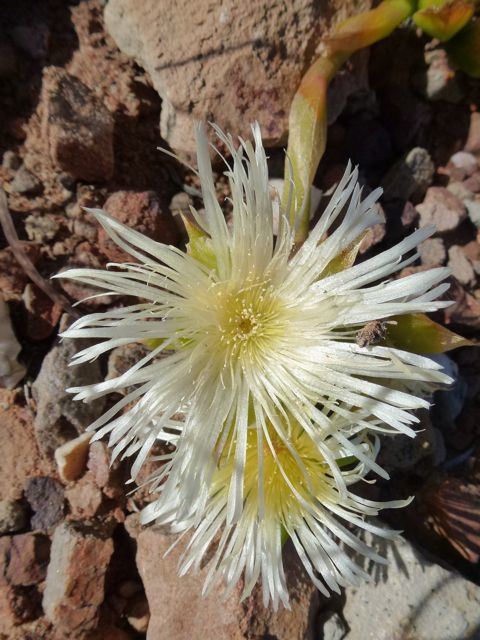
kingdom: Plantae
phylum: Tracheophyta
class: Magnoliopsida
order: Caryophyllales
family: Aizoaceae
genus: Mesembryanthemum
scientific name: Mesembryanthemum tortuosum
